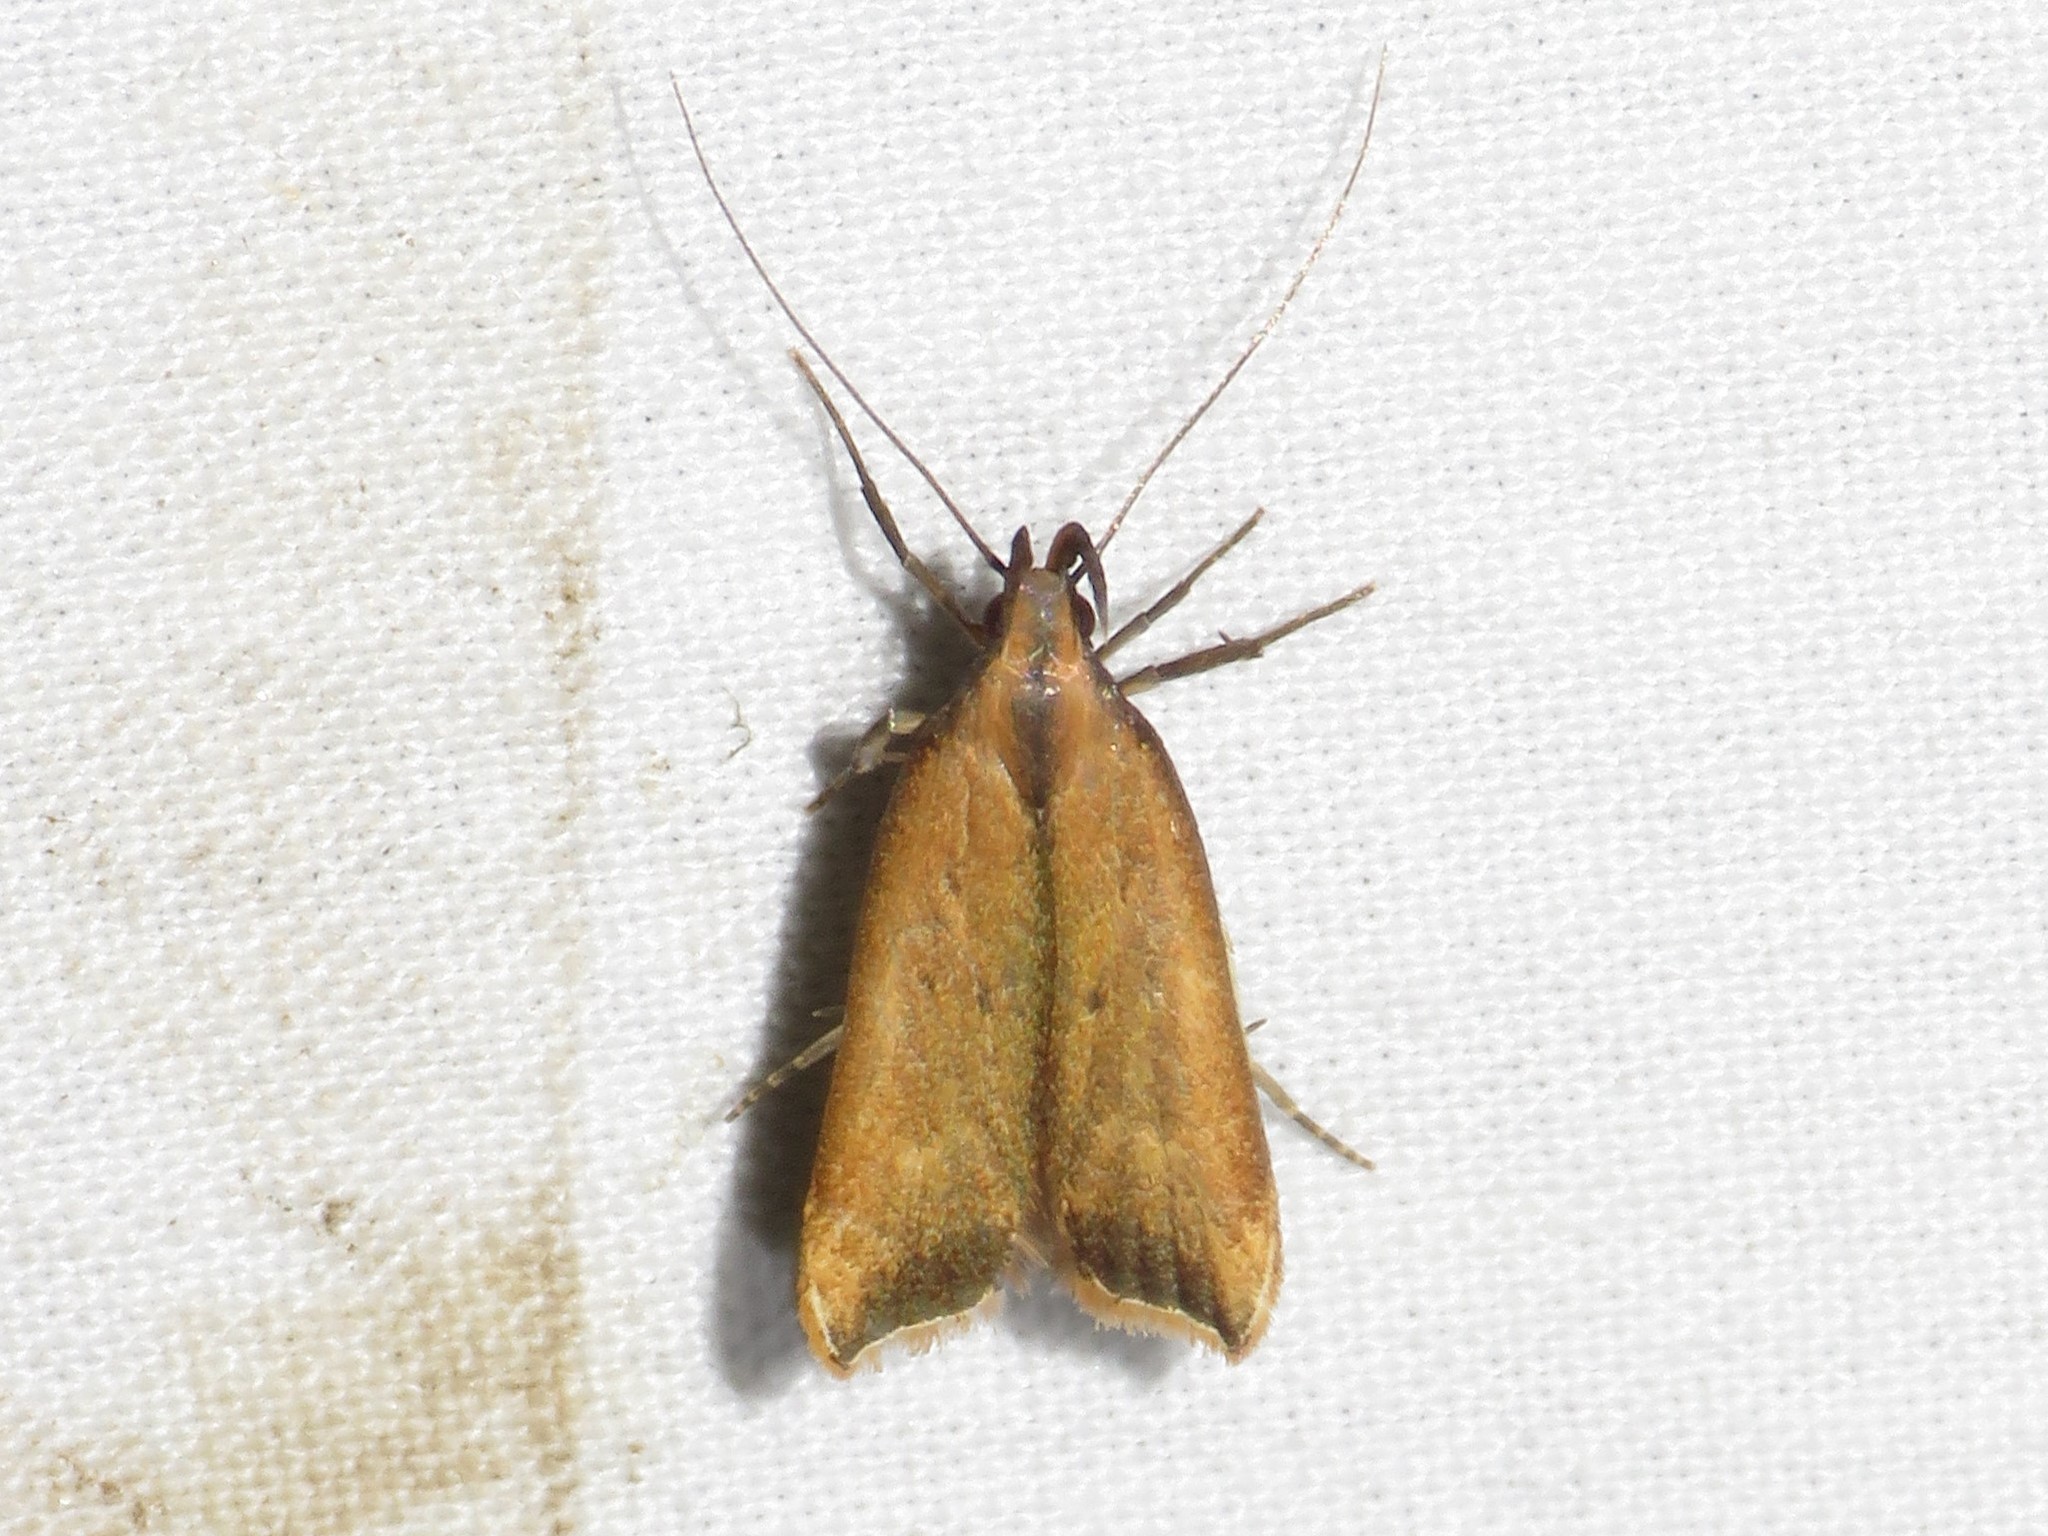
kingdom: Animalia
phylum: Arthropoda
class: Insecta
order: Lepidoptera
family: Gelechiidae
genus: Dichomeris
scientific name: Dichomeris heriguronis
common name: Black-edged dichomeris moth
